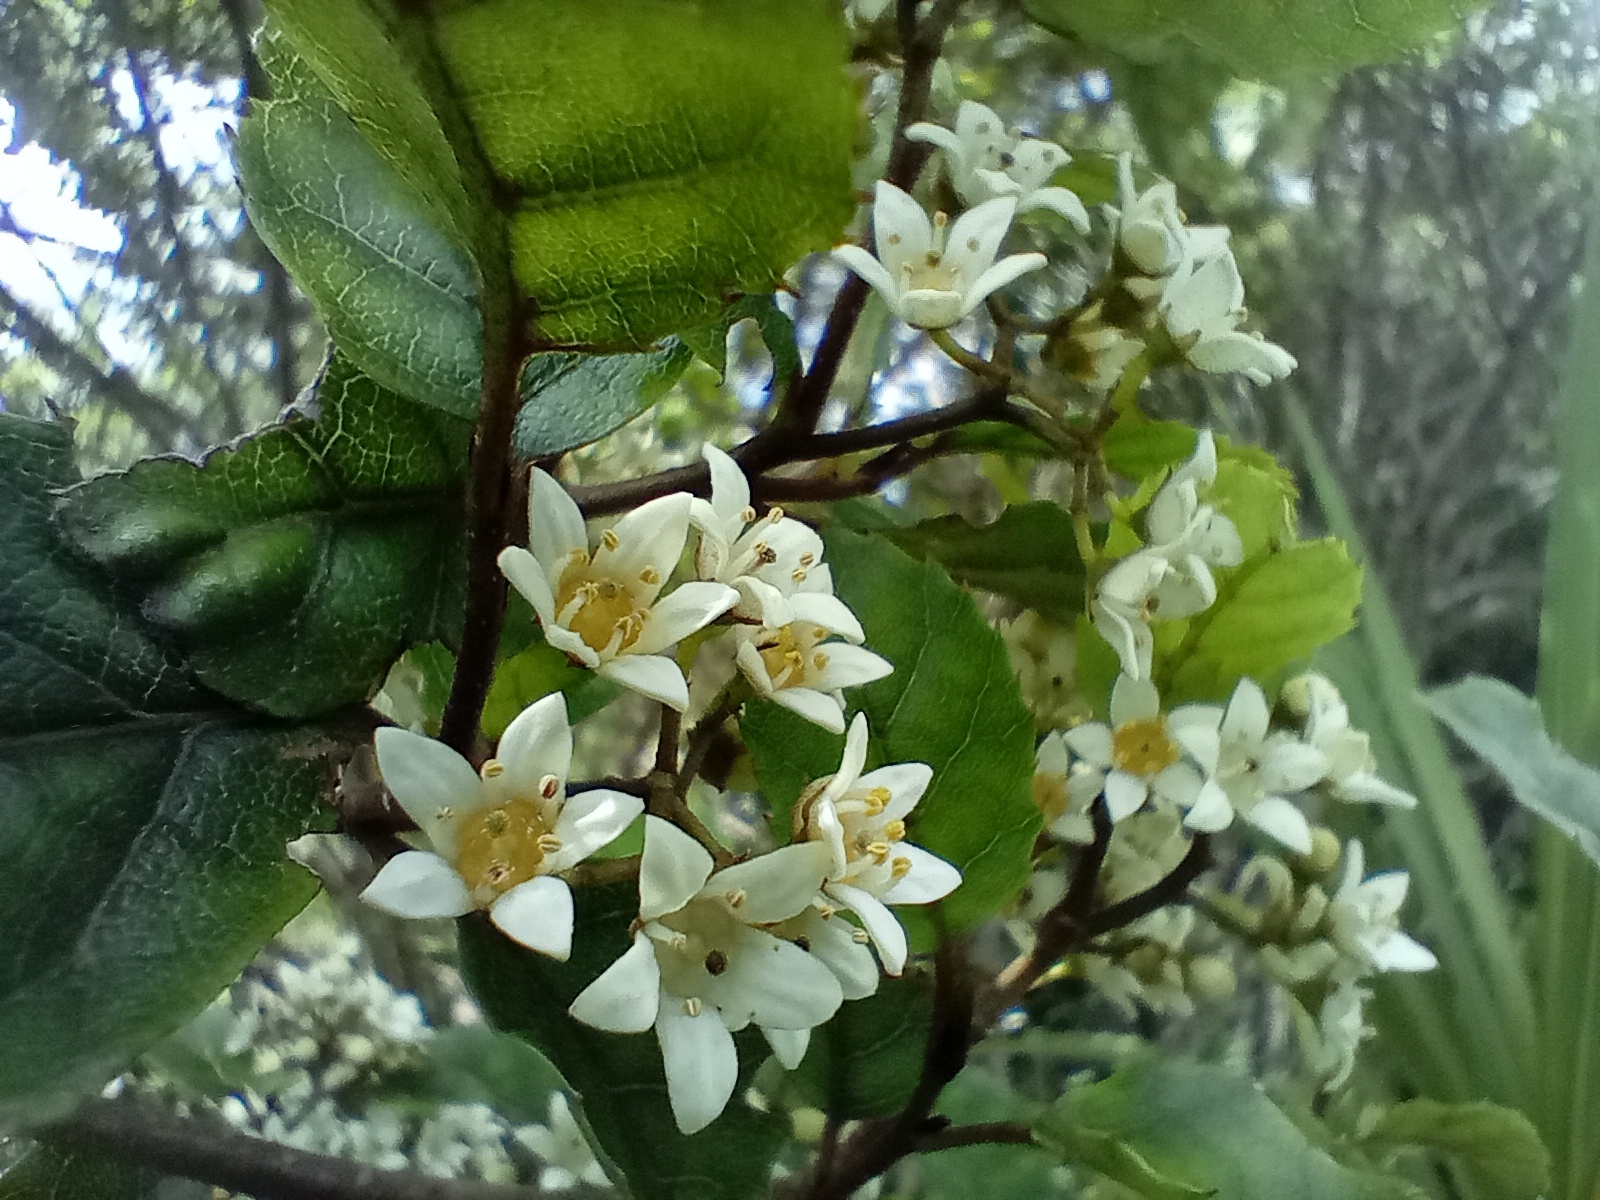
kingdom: Plantae
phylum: Tracheophyta
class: Magnoliopsida
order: Asterales
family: Rousseaceae
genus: Carpodetus
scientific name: Carpodetus serratus
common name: White mapau
